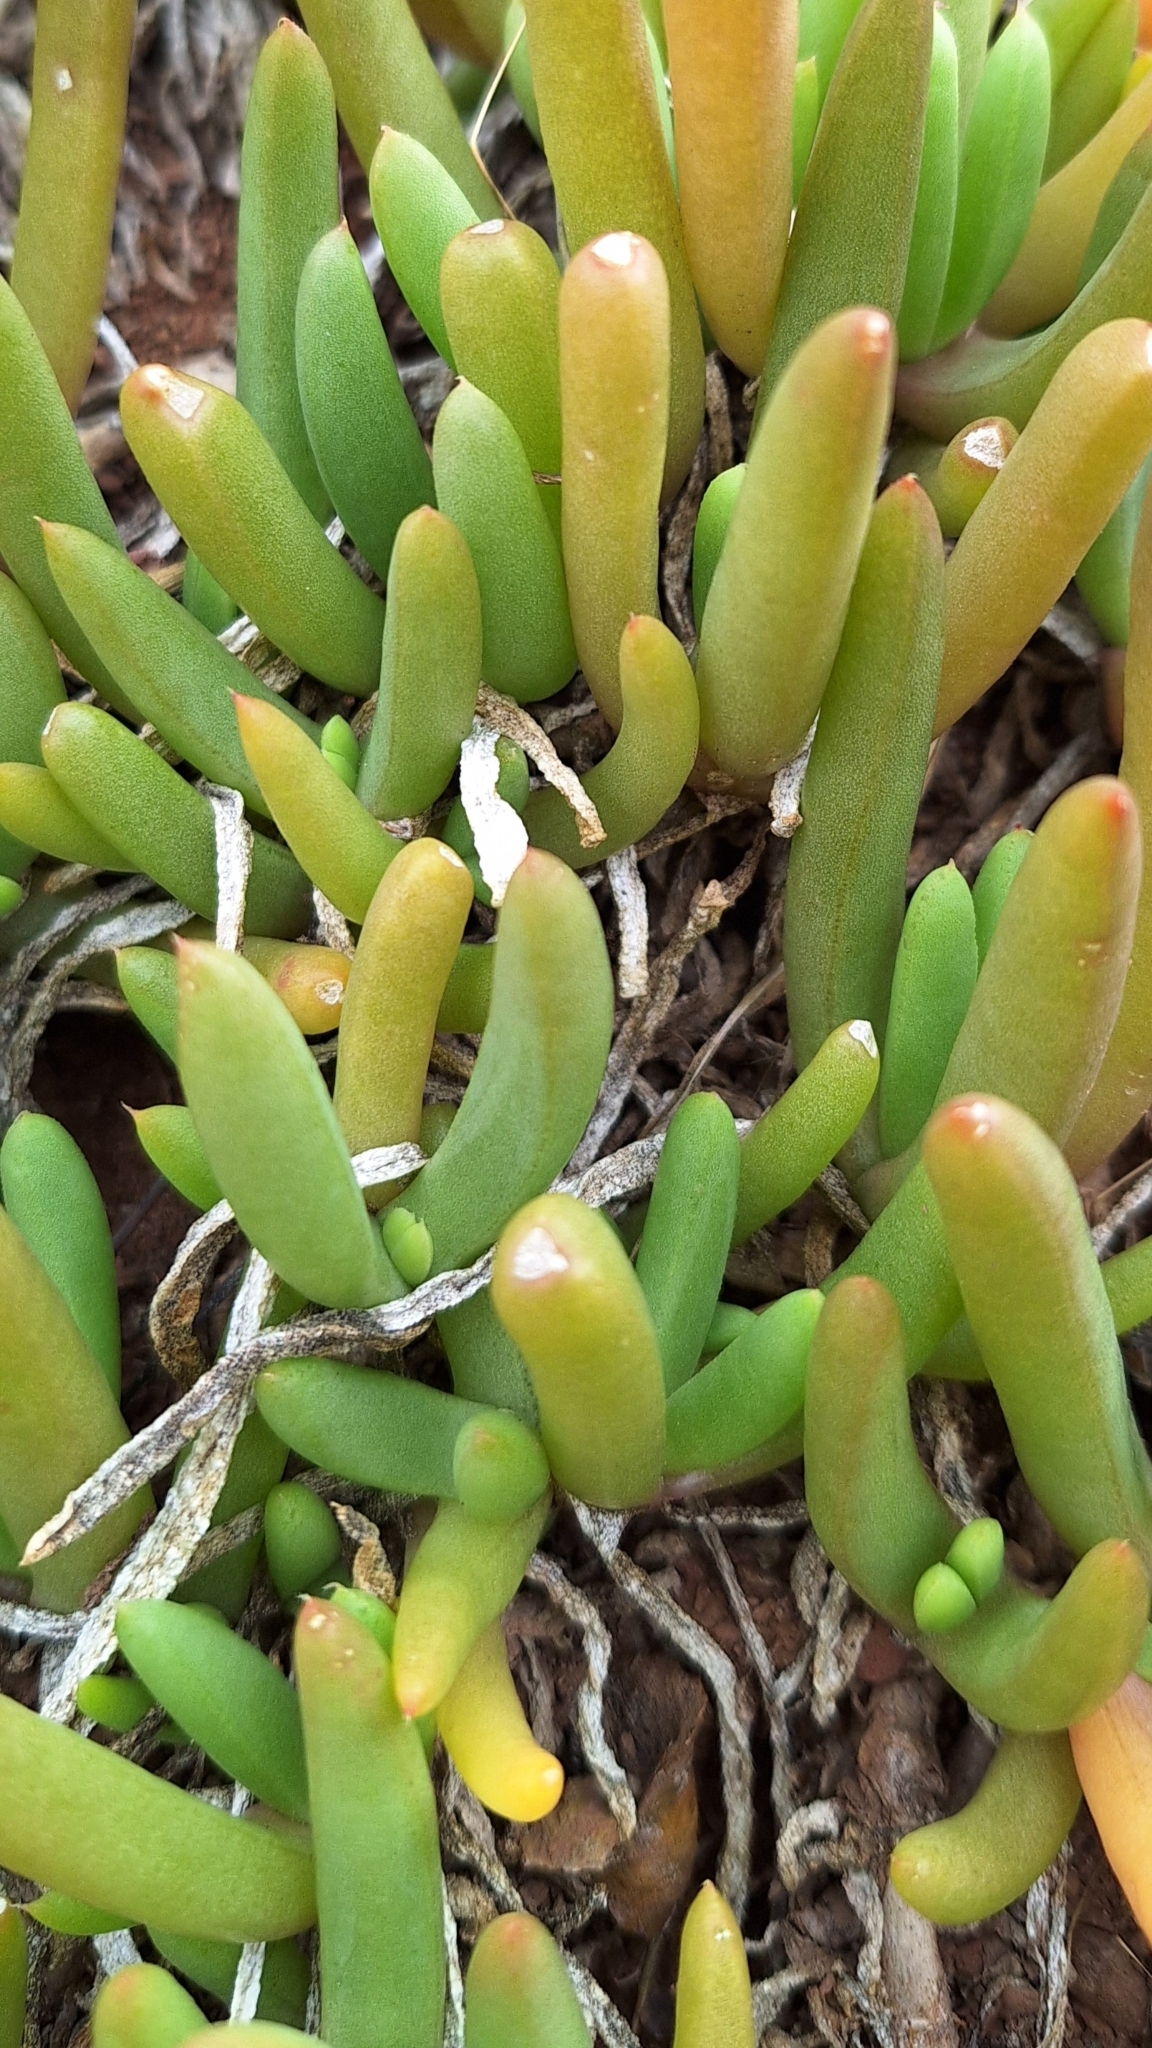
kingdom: Plantae
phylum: Tracheophyta
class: Magnoliopsida
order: Caryophyllales
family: Aizoaceae
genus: Disphyma
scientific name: Disphyma crassifolium
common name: Purple dewplant
